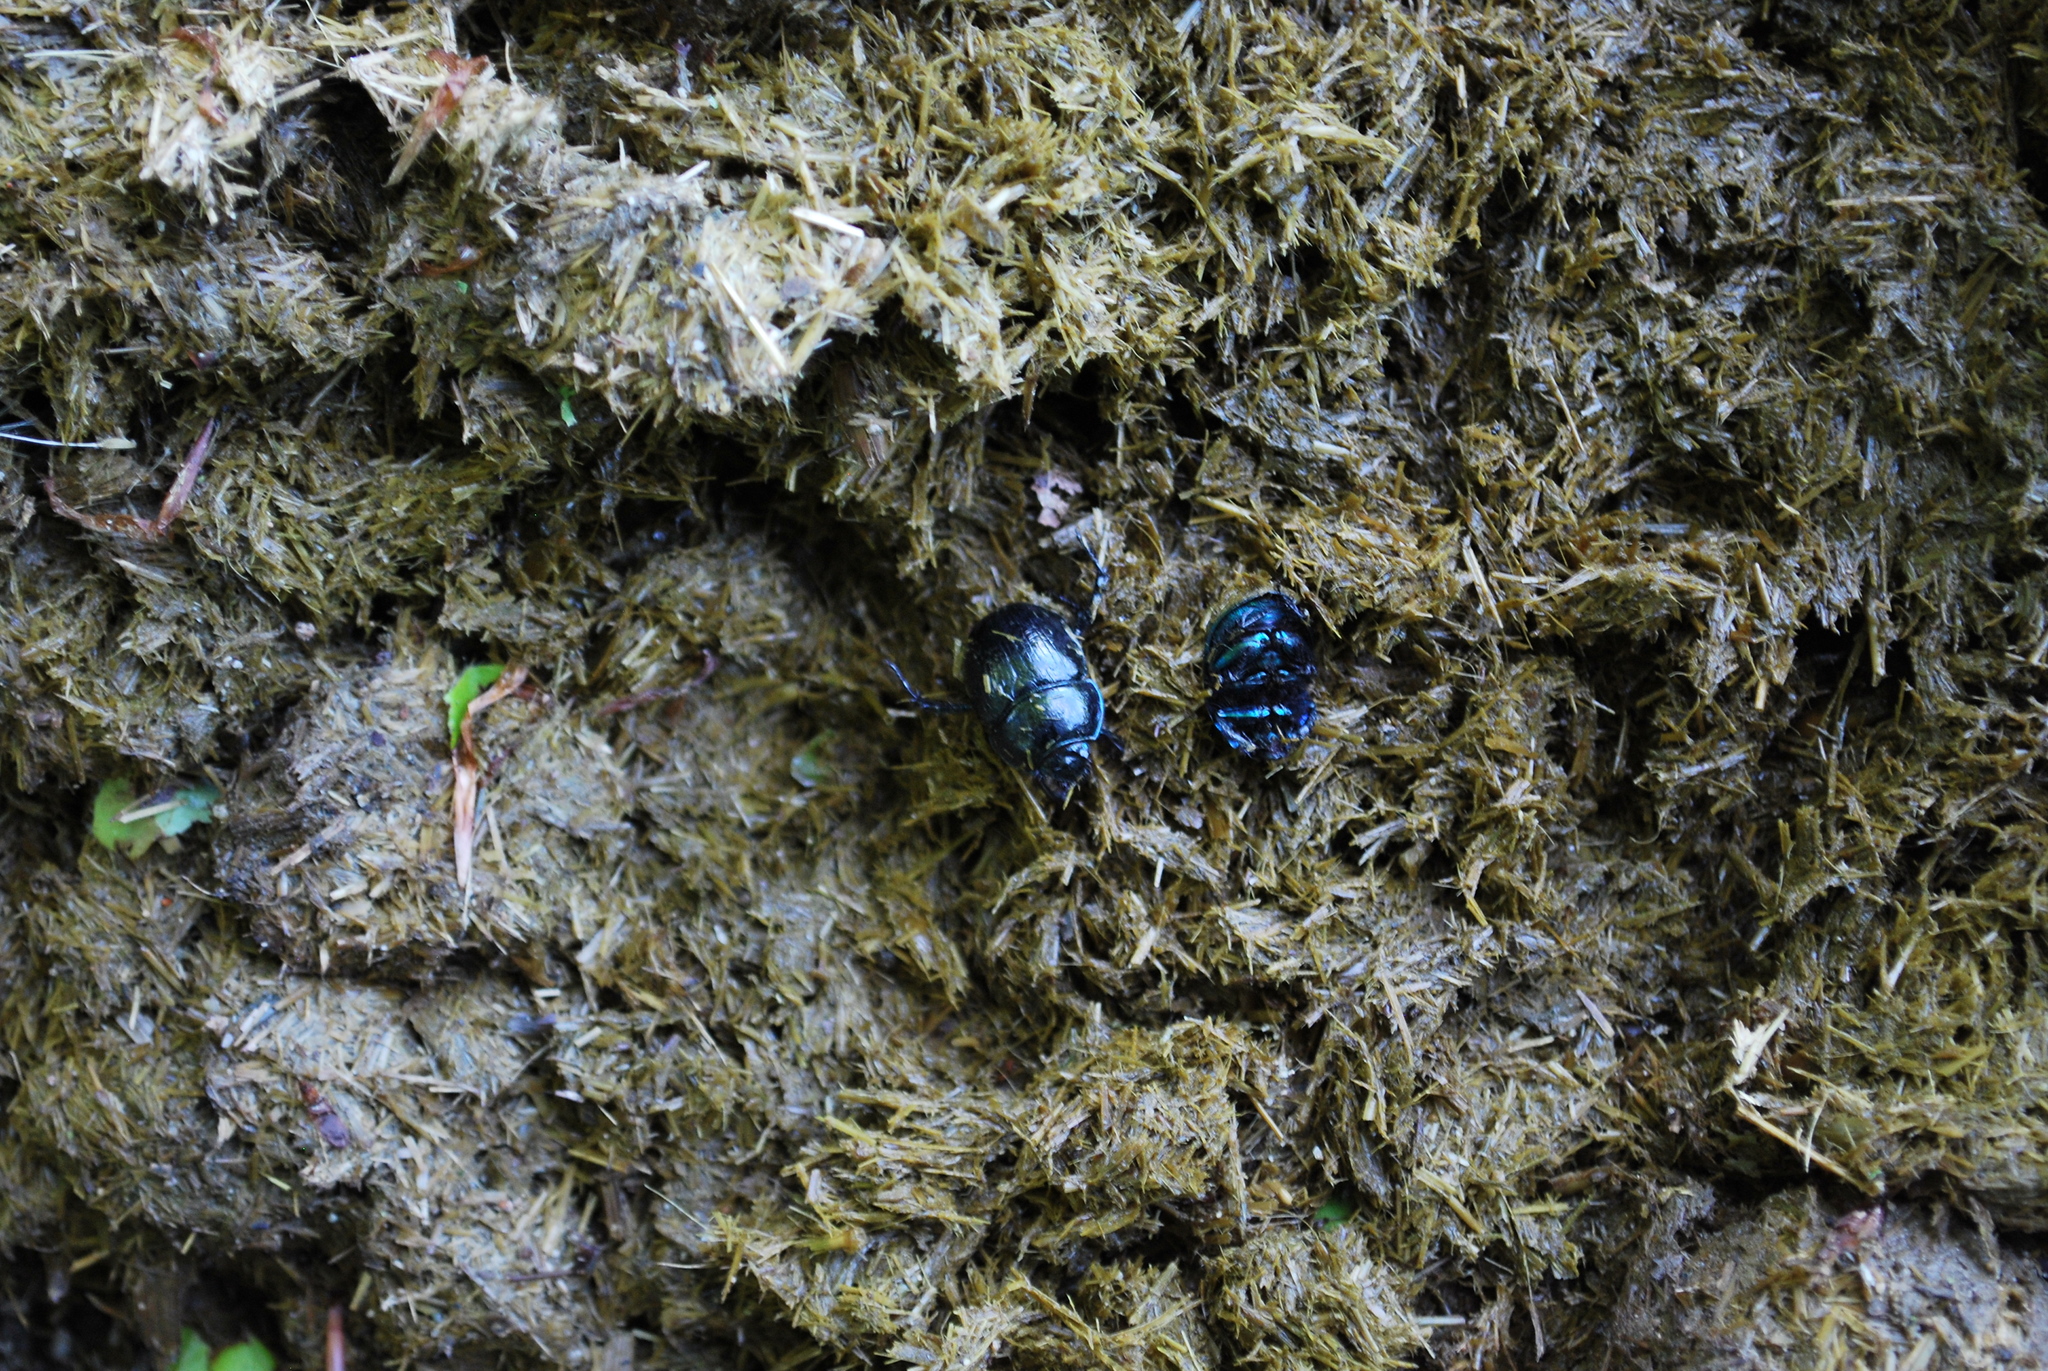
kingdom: Animalia
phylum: Arthropoda
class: Insecta
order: Coleoptera
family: Geotrupidae
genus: Anoplotrupes
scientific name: Anoplotrupes stercorosus
